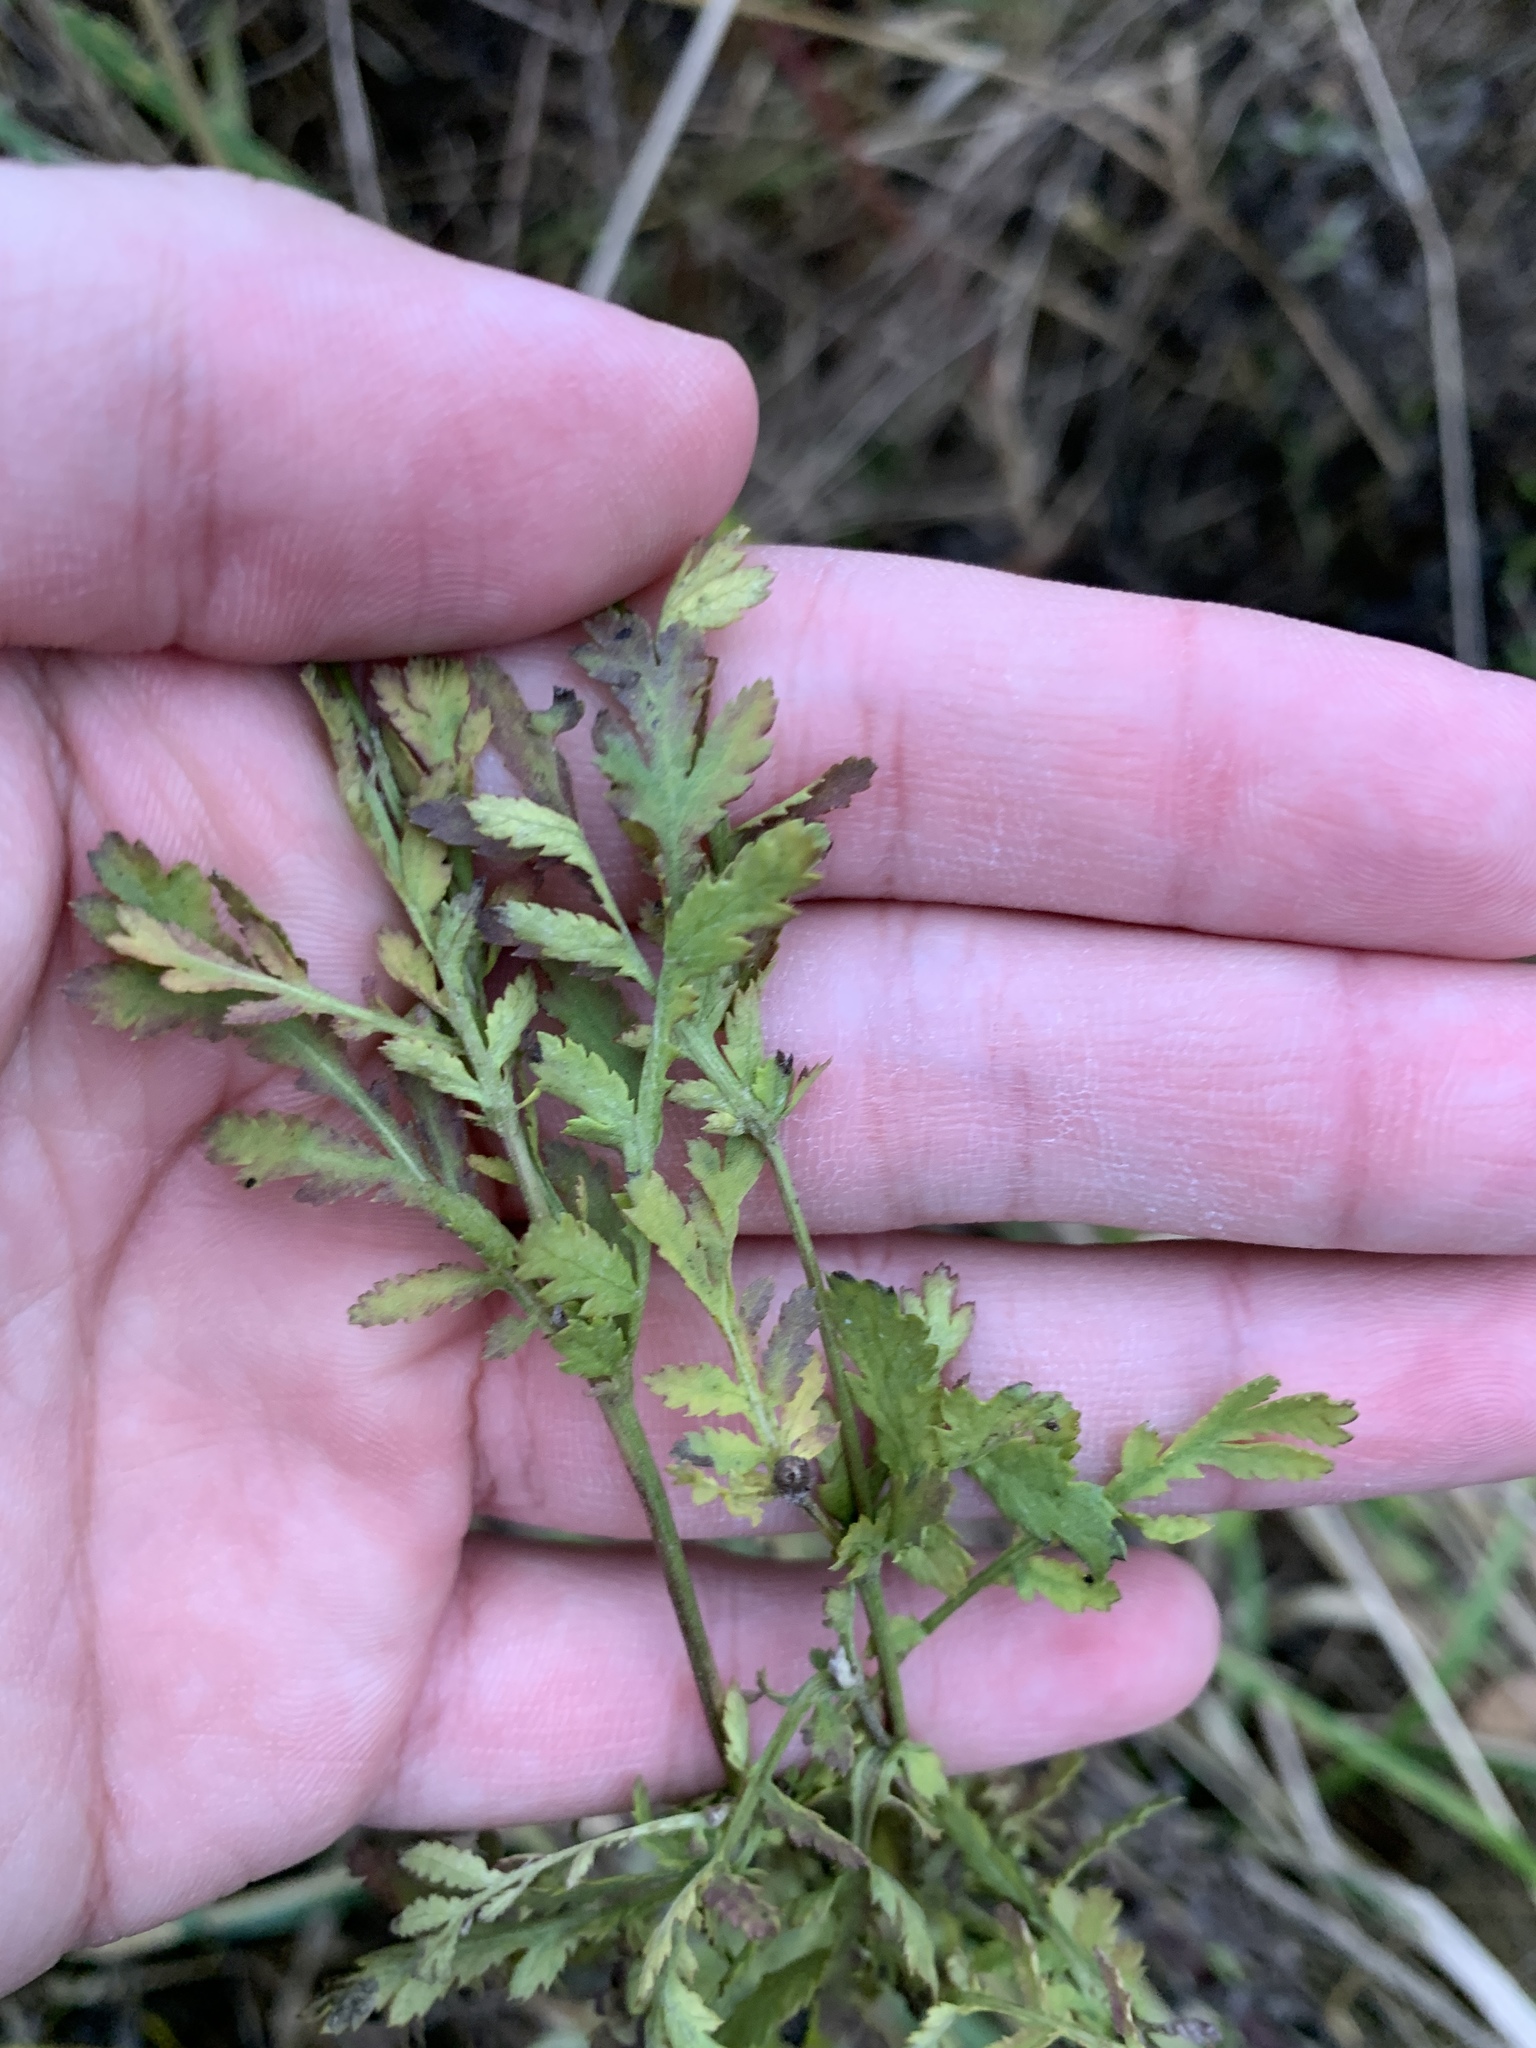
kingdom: Plantae
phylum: Tracheophyta
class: Magnoliopsida
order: Asterales
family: Asteraceae
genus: Tanacetum
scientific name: Tanacetum vulgare
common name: Common tansy
